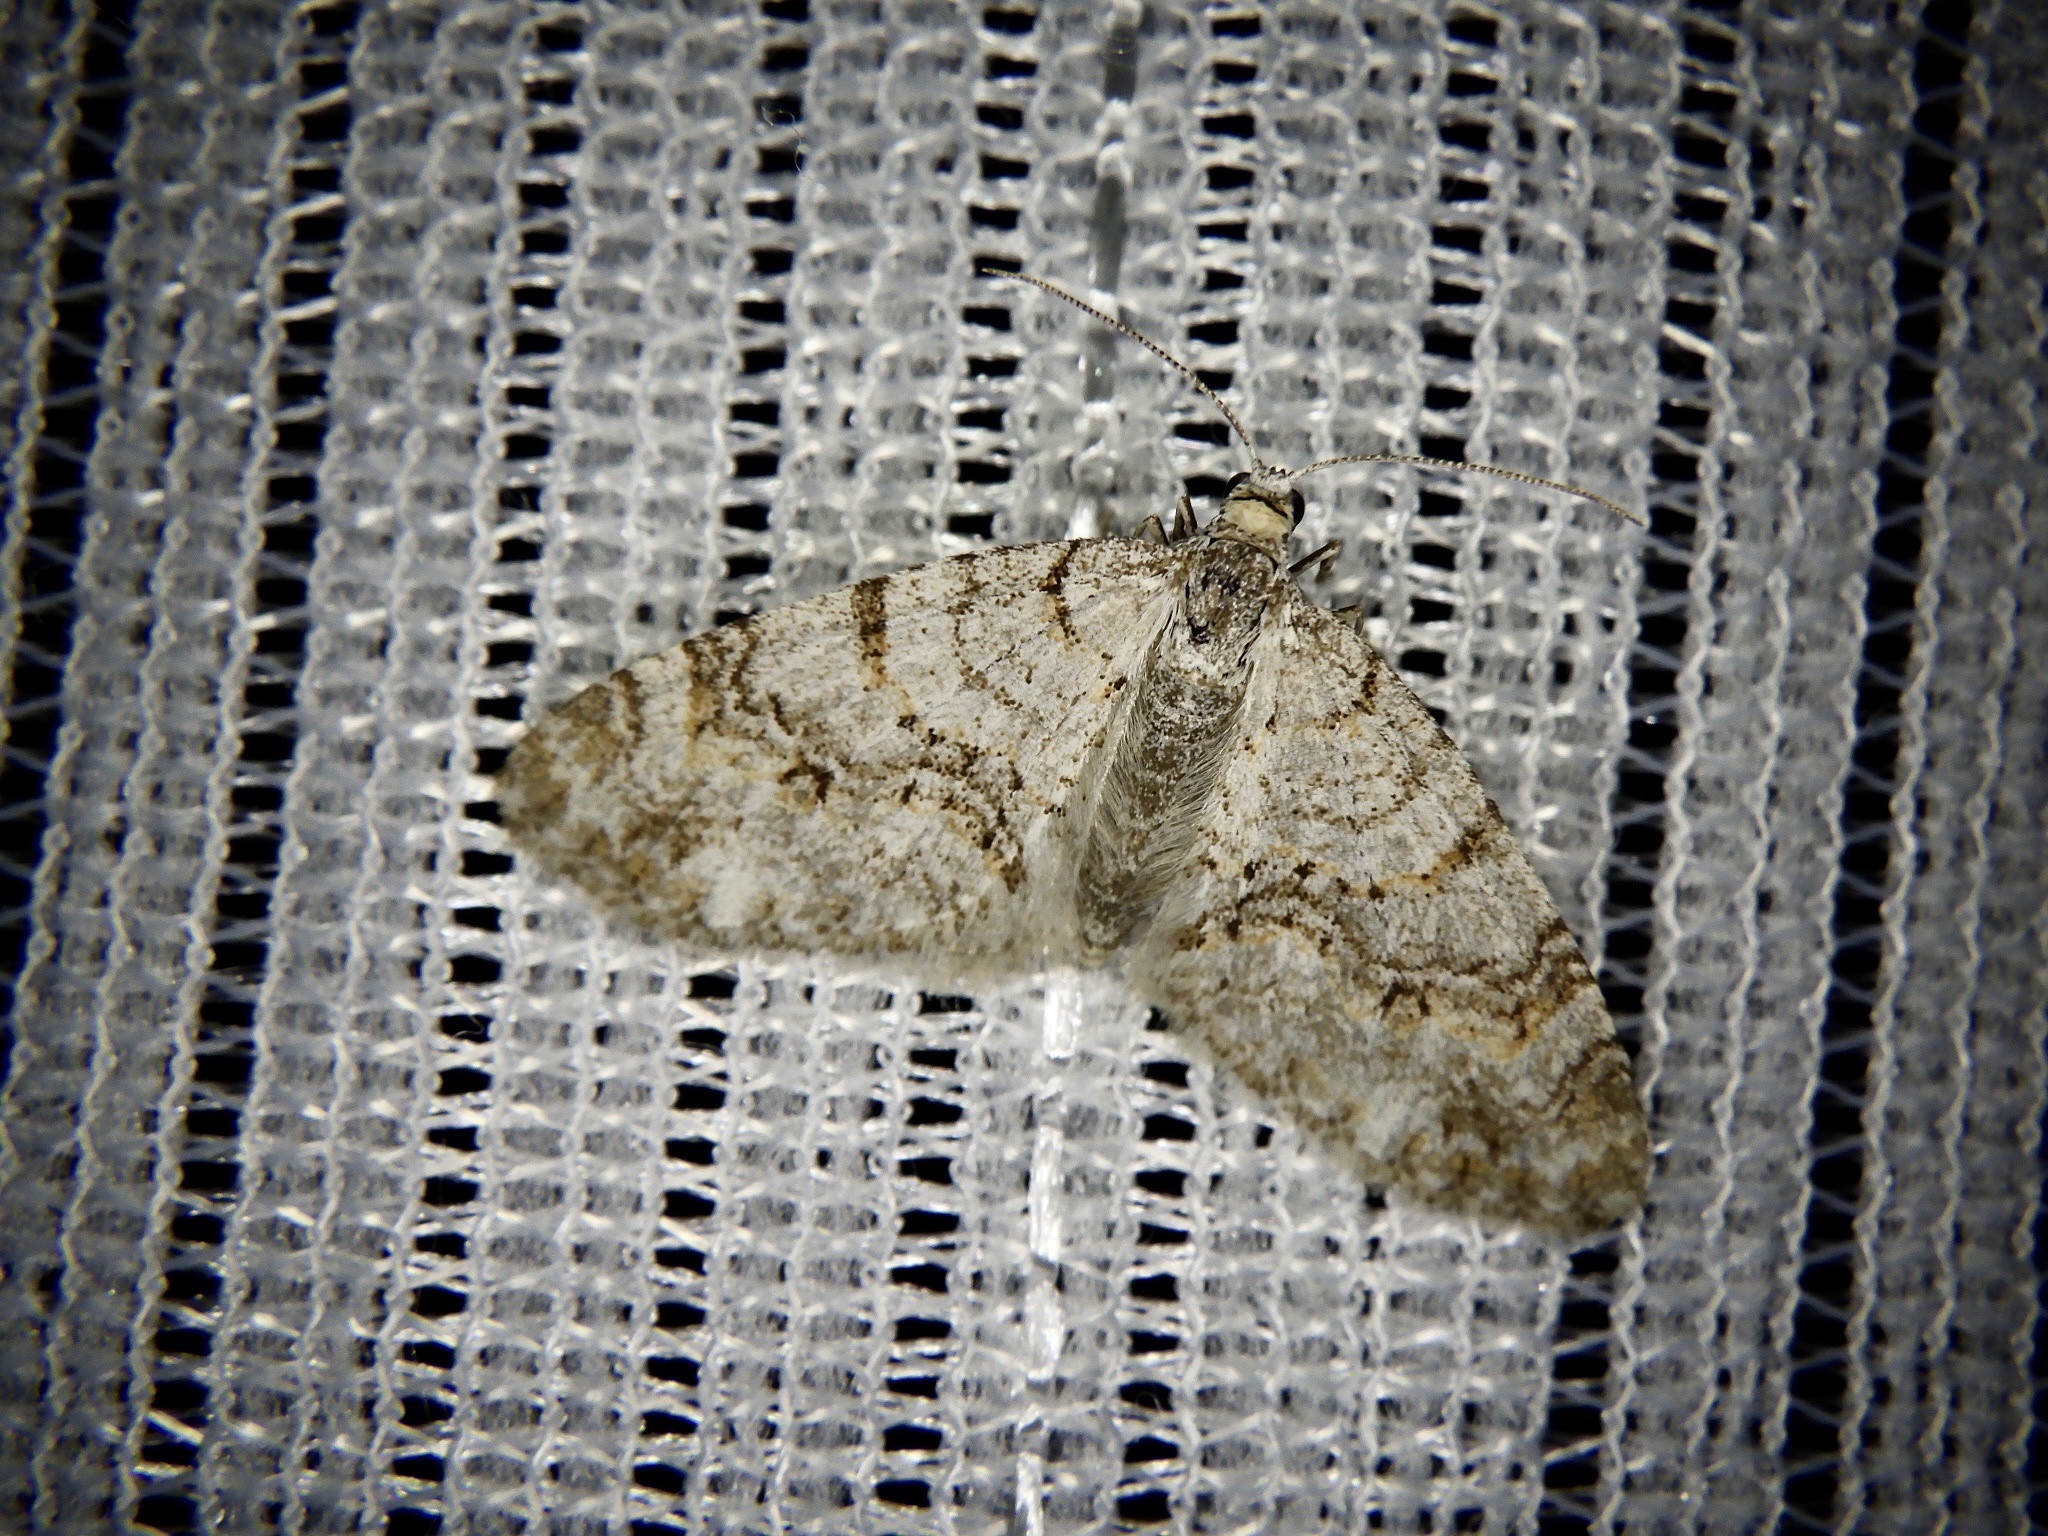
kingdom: Animalia
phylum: Arthropoda
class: Insecta
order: Lepidoptera
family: Geometridae
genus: Trichopteryx
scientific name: Trichopteryx fastuosa
